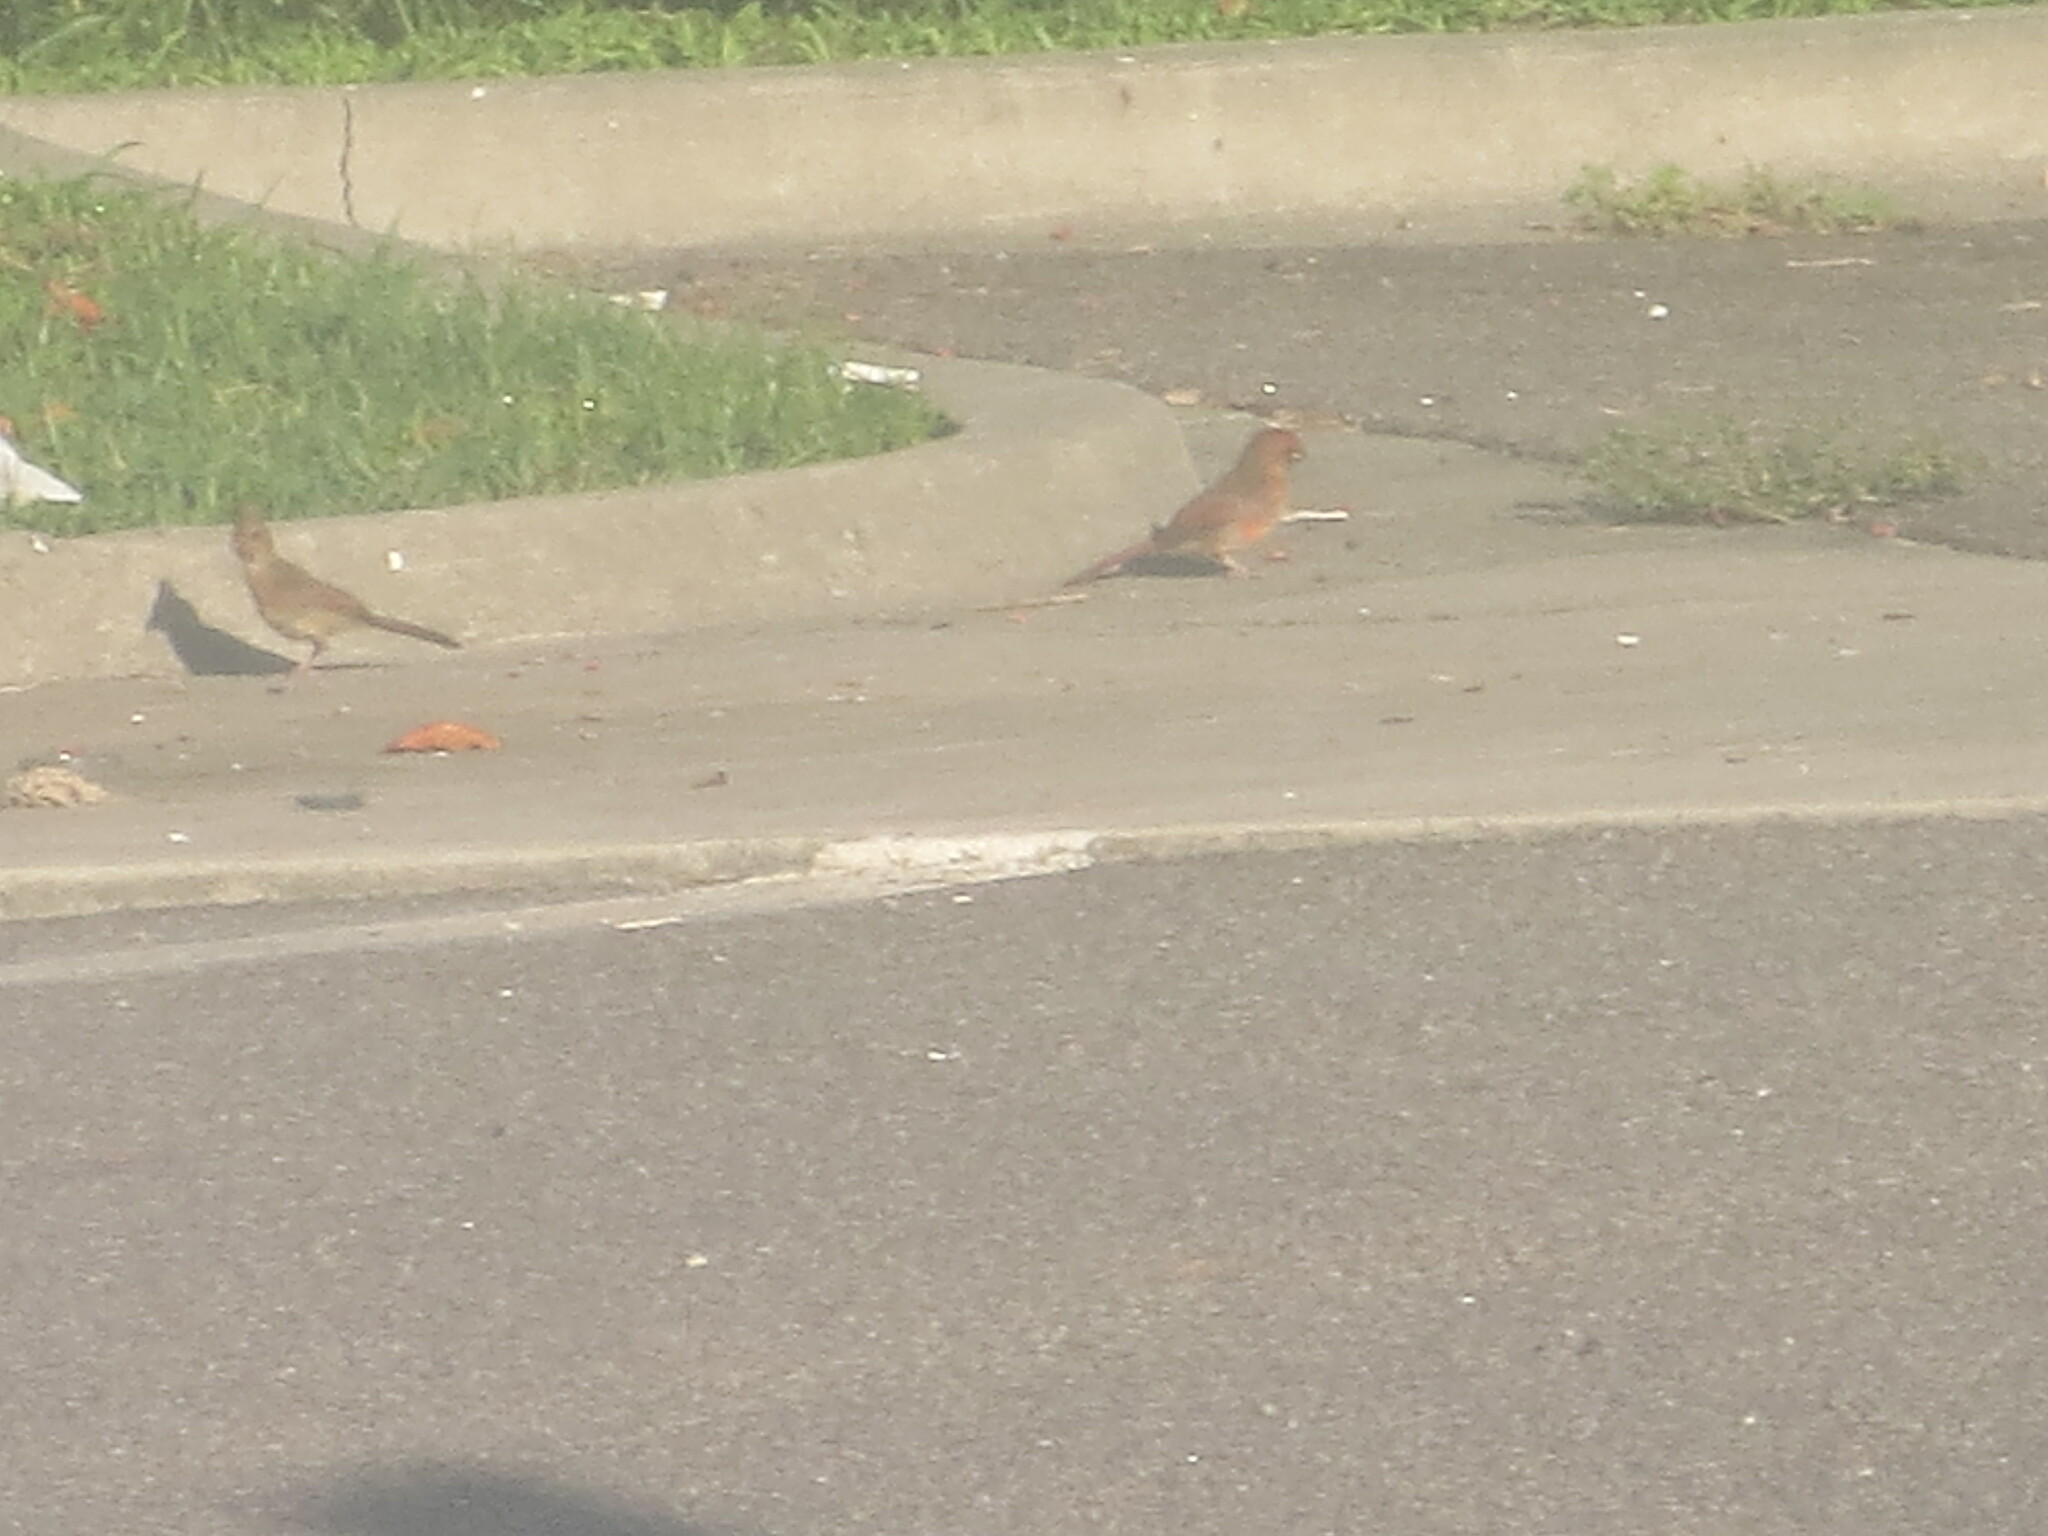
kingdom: Animalia
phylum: Chordata
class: Aves
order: Passeriformes
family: Cardinalidae
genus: Cardinalis
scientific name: Cardinalis cardinalis
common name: Northern cardinal
